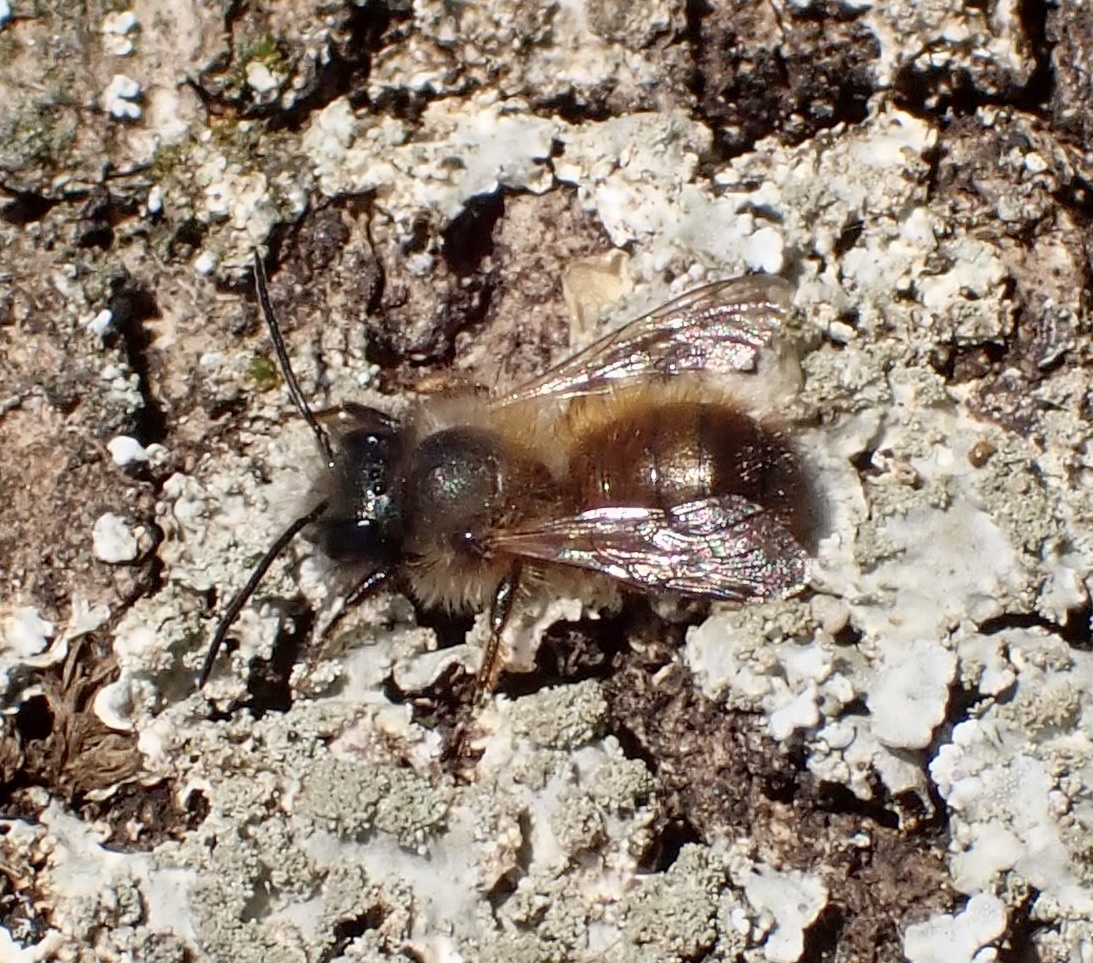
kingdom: Animalia
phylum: Arthropoda
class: Insecta
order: Hymenoptera
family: Megachilidae
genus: Osmia
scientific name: Osmia bicornis
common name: Red mason bee
